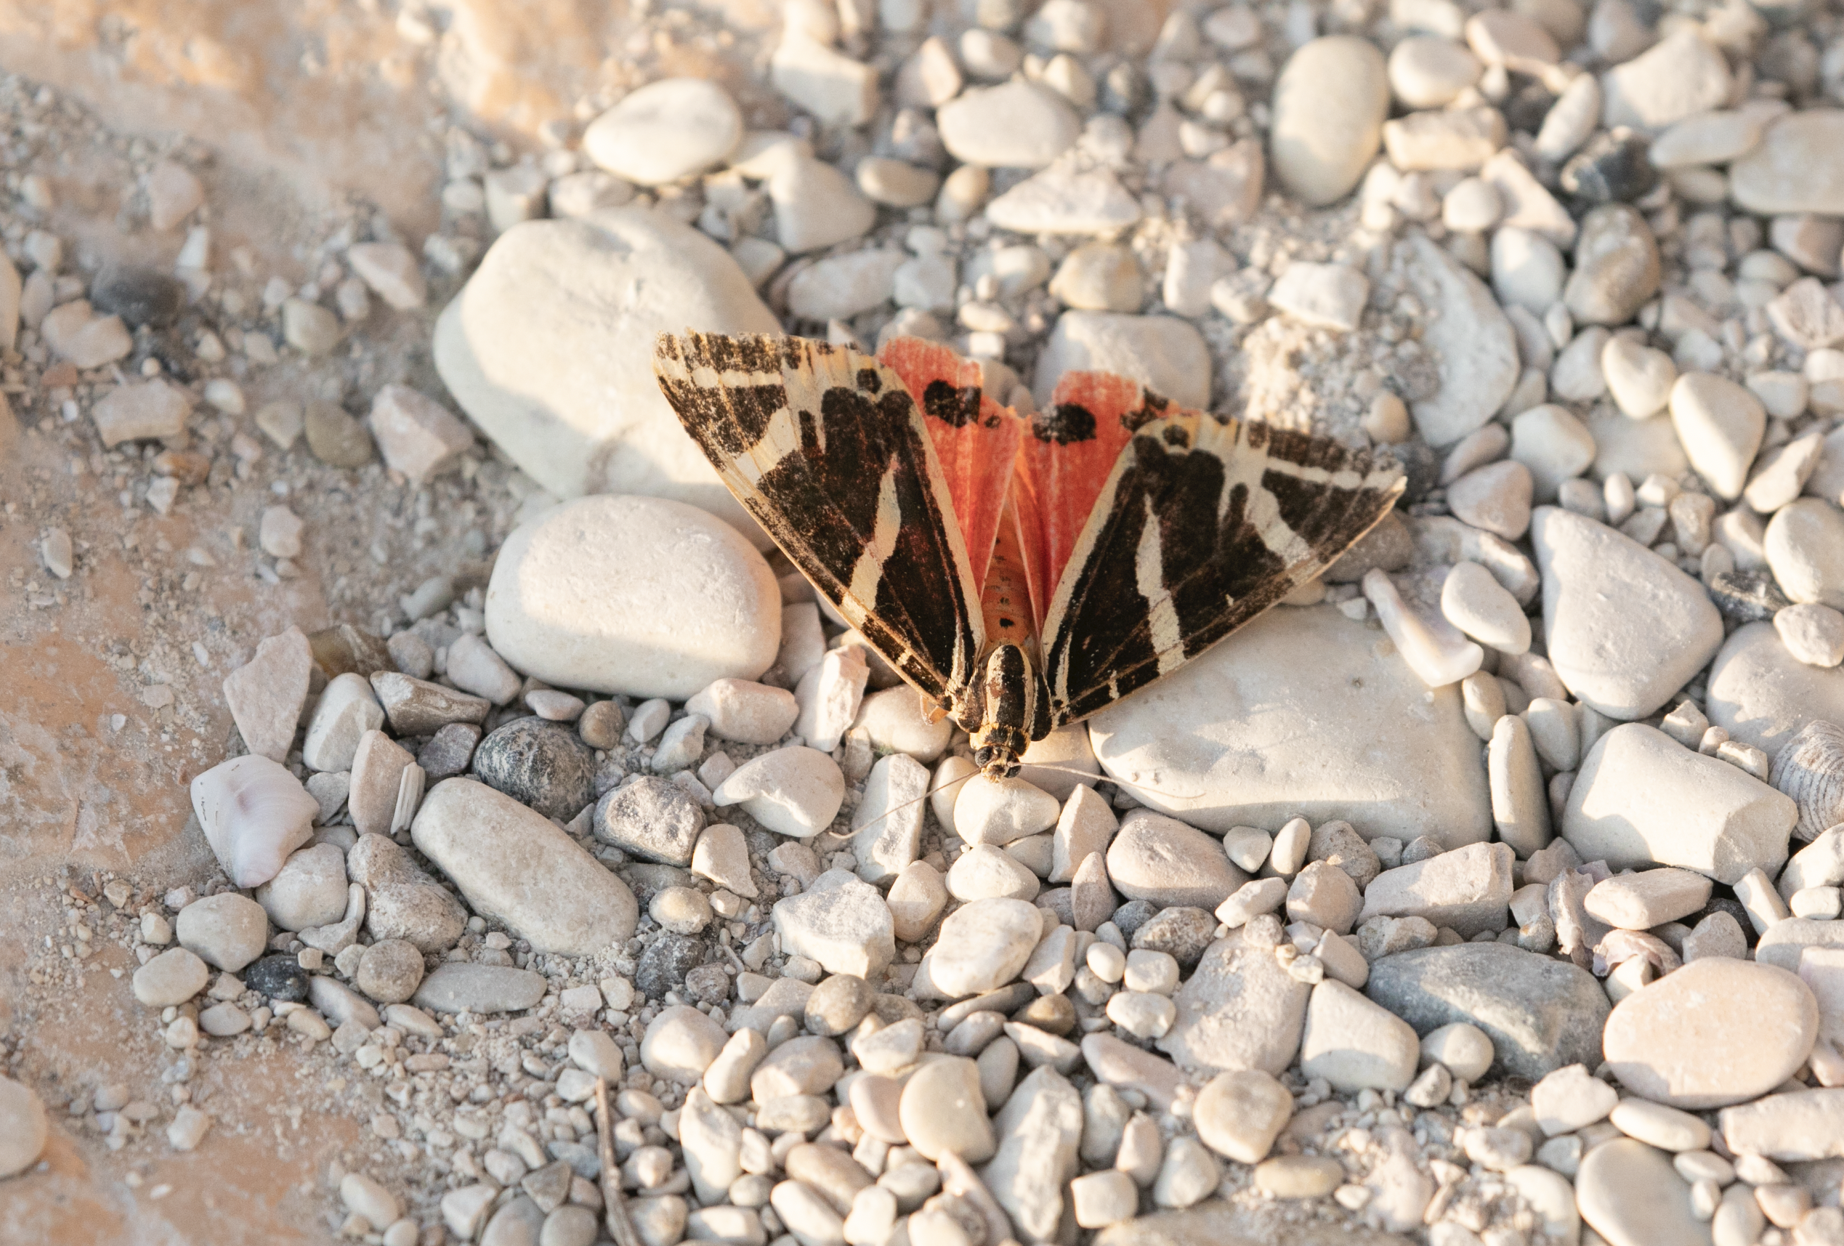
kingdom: Animalia
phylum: Arthropoda
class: Insecta
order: Lepidoptera
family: Erebidae
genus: Euplagia
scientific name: Euplagia quadripunctaria
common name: Jersey tiger
